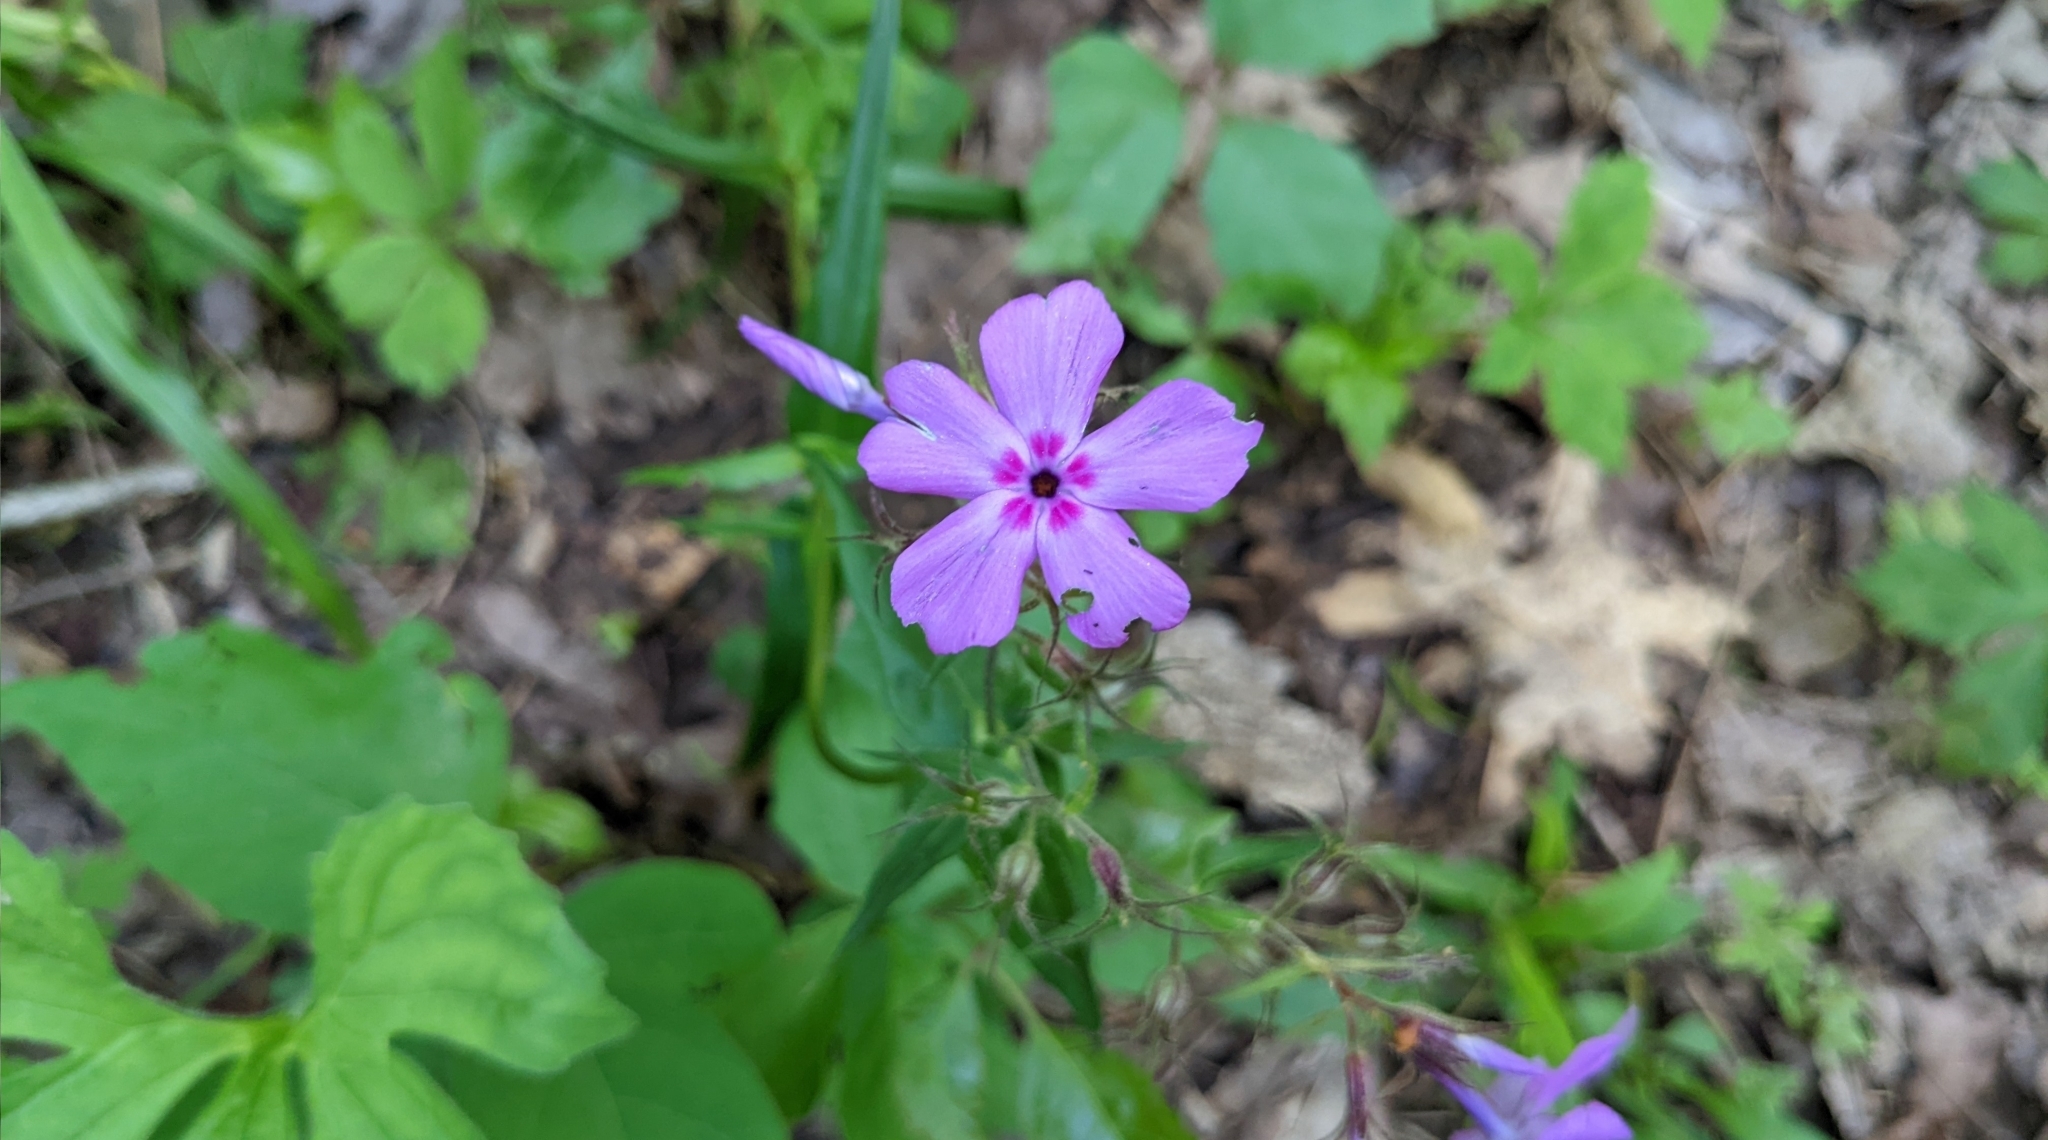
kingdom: Plantae
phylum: Tracheophyta
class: Magnoliopsida
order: Ericales
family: Polemoniaceae
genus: Phlox
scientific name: Phlox pilosa
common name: Prairie phlox
